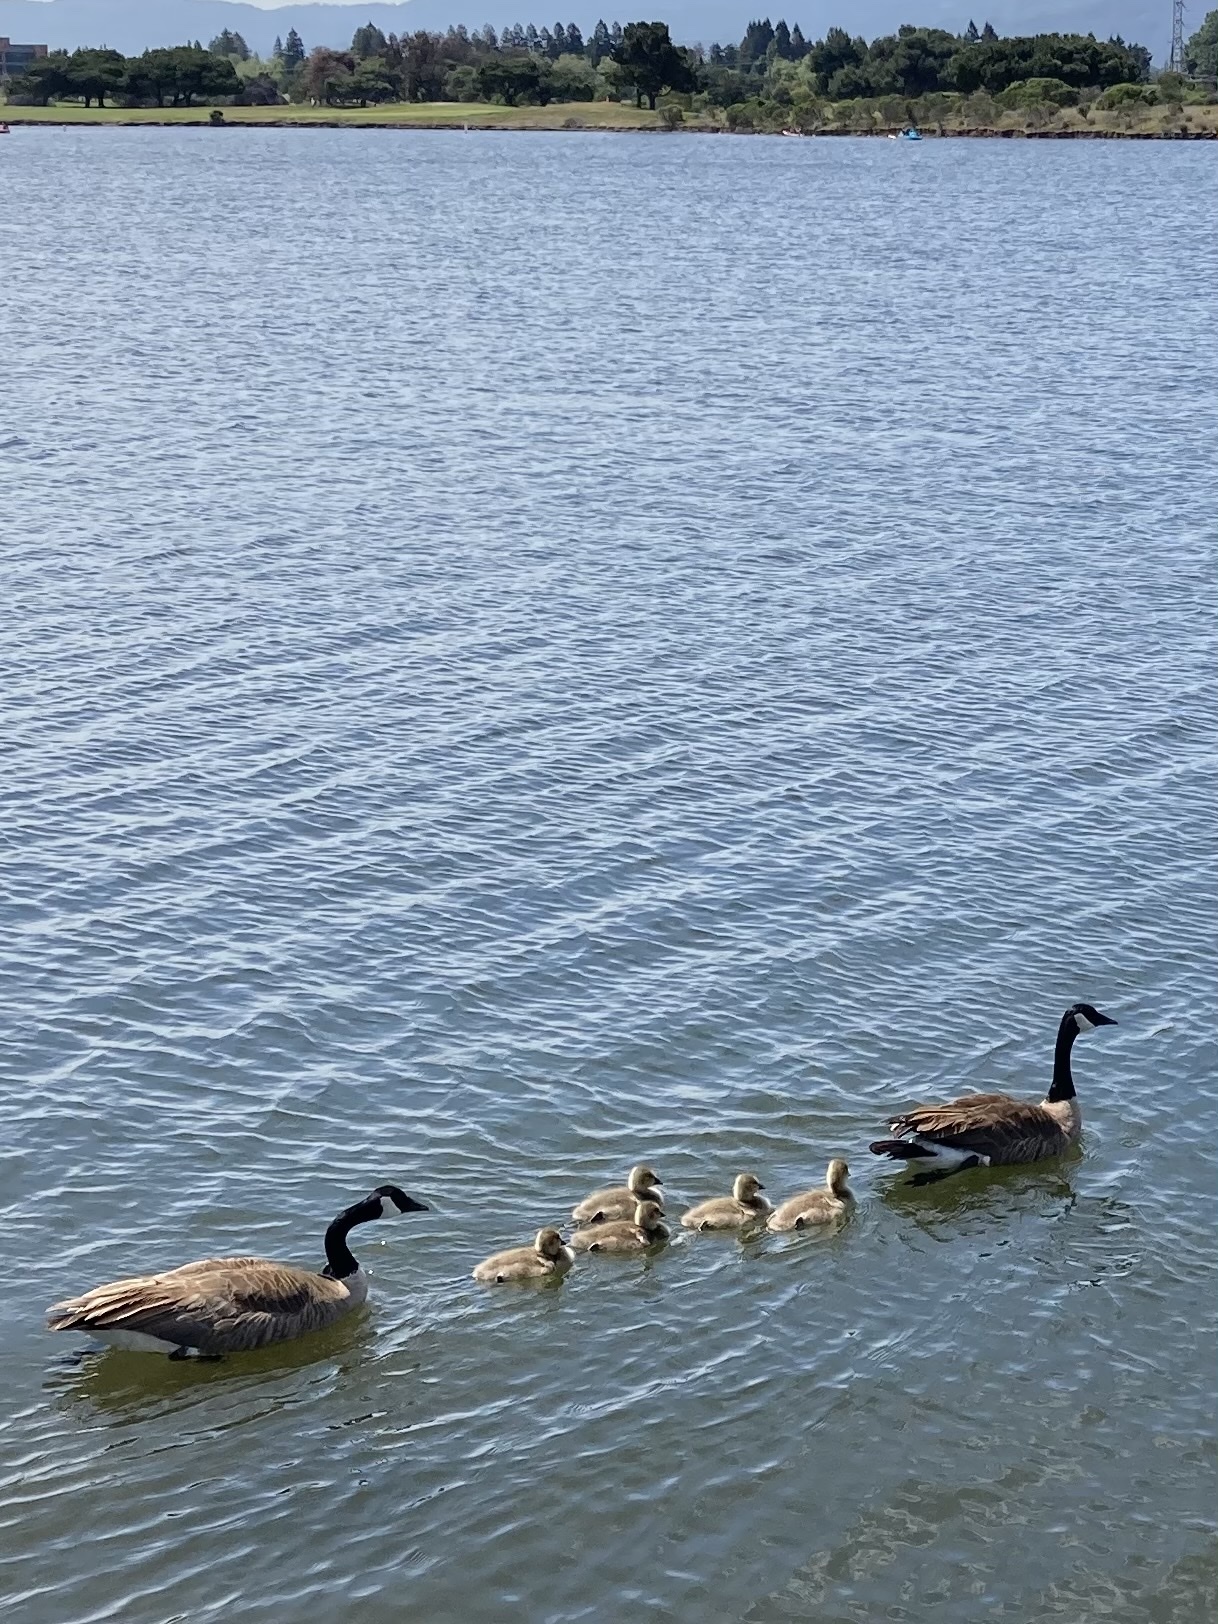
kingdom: Animalia
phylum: Chordata
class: Aves
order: Anseriformes
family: Anatidae
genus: Branta
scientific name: Branta canadensis
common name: Canada goose
